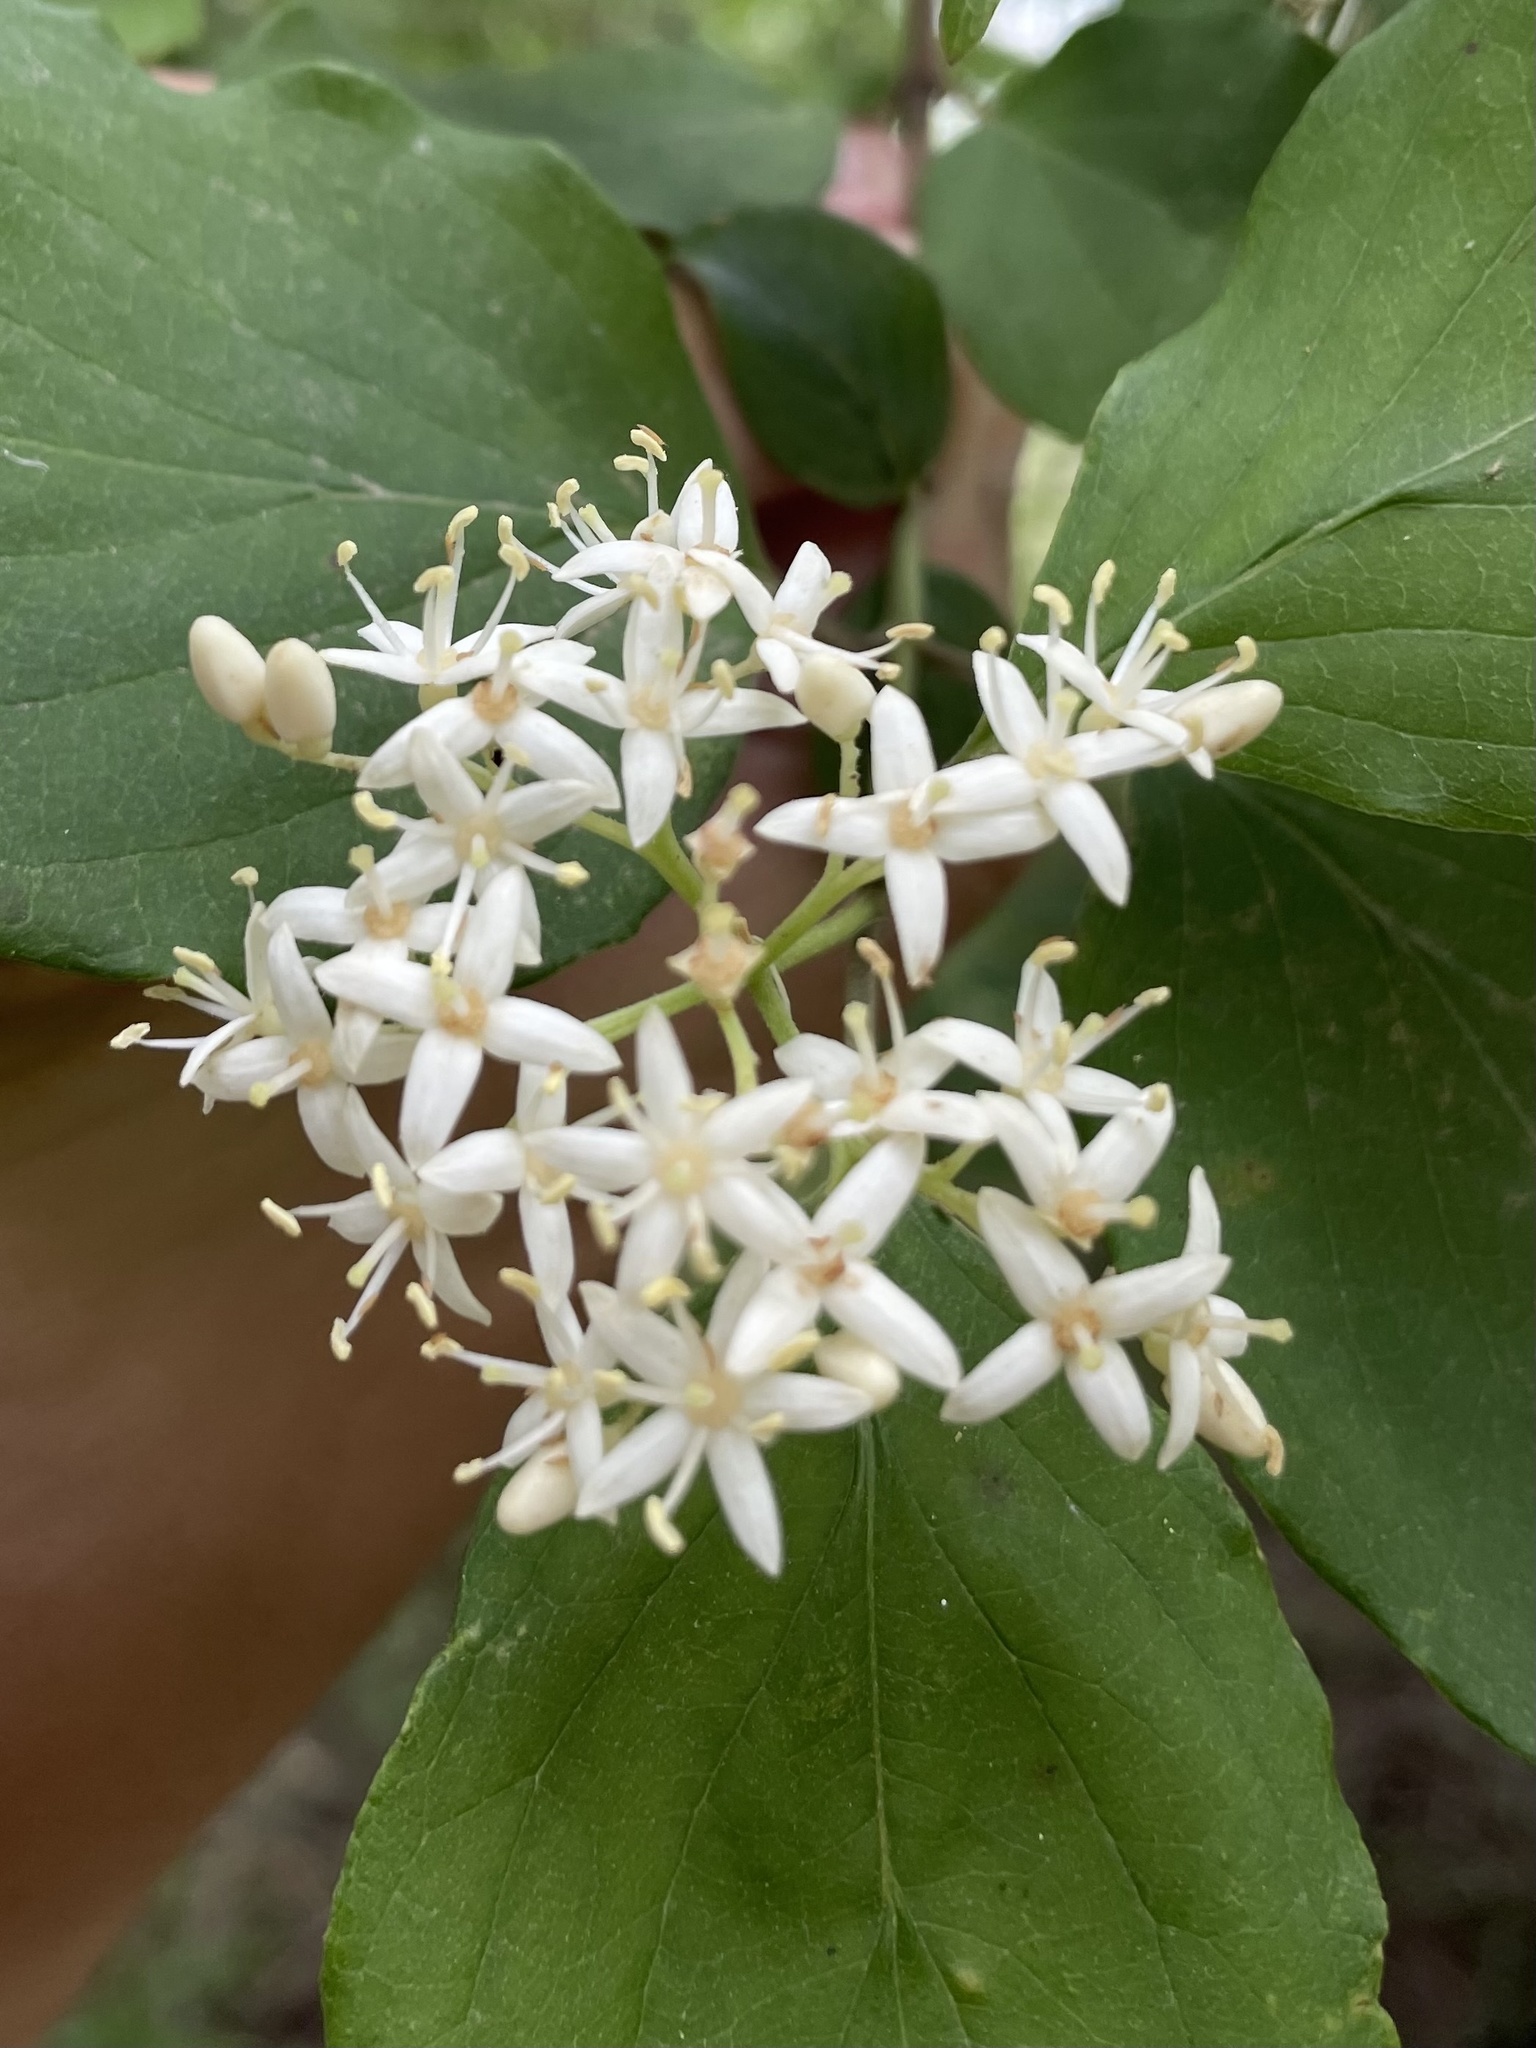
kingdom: Plantae
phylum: Tracheophyta
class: Magnoliopsida
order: Cornales
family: Cornaceae
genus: Cornus
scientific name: Cornus drummondii
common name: Rough-leaf dogwood
